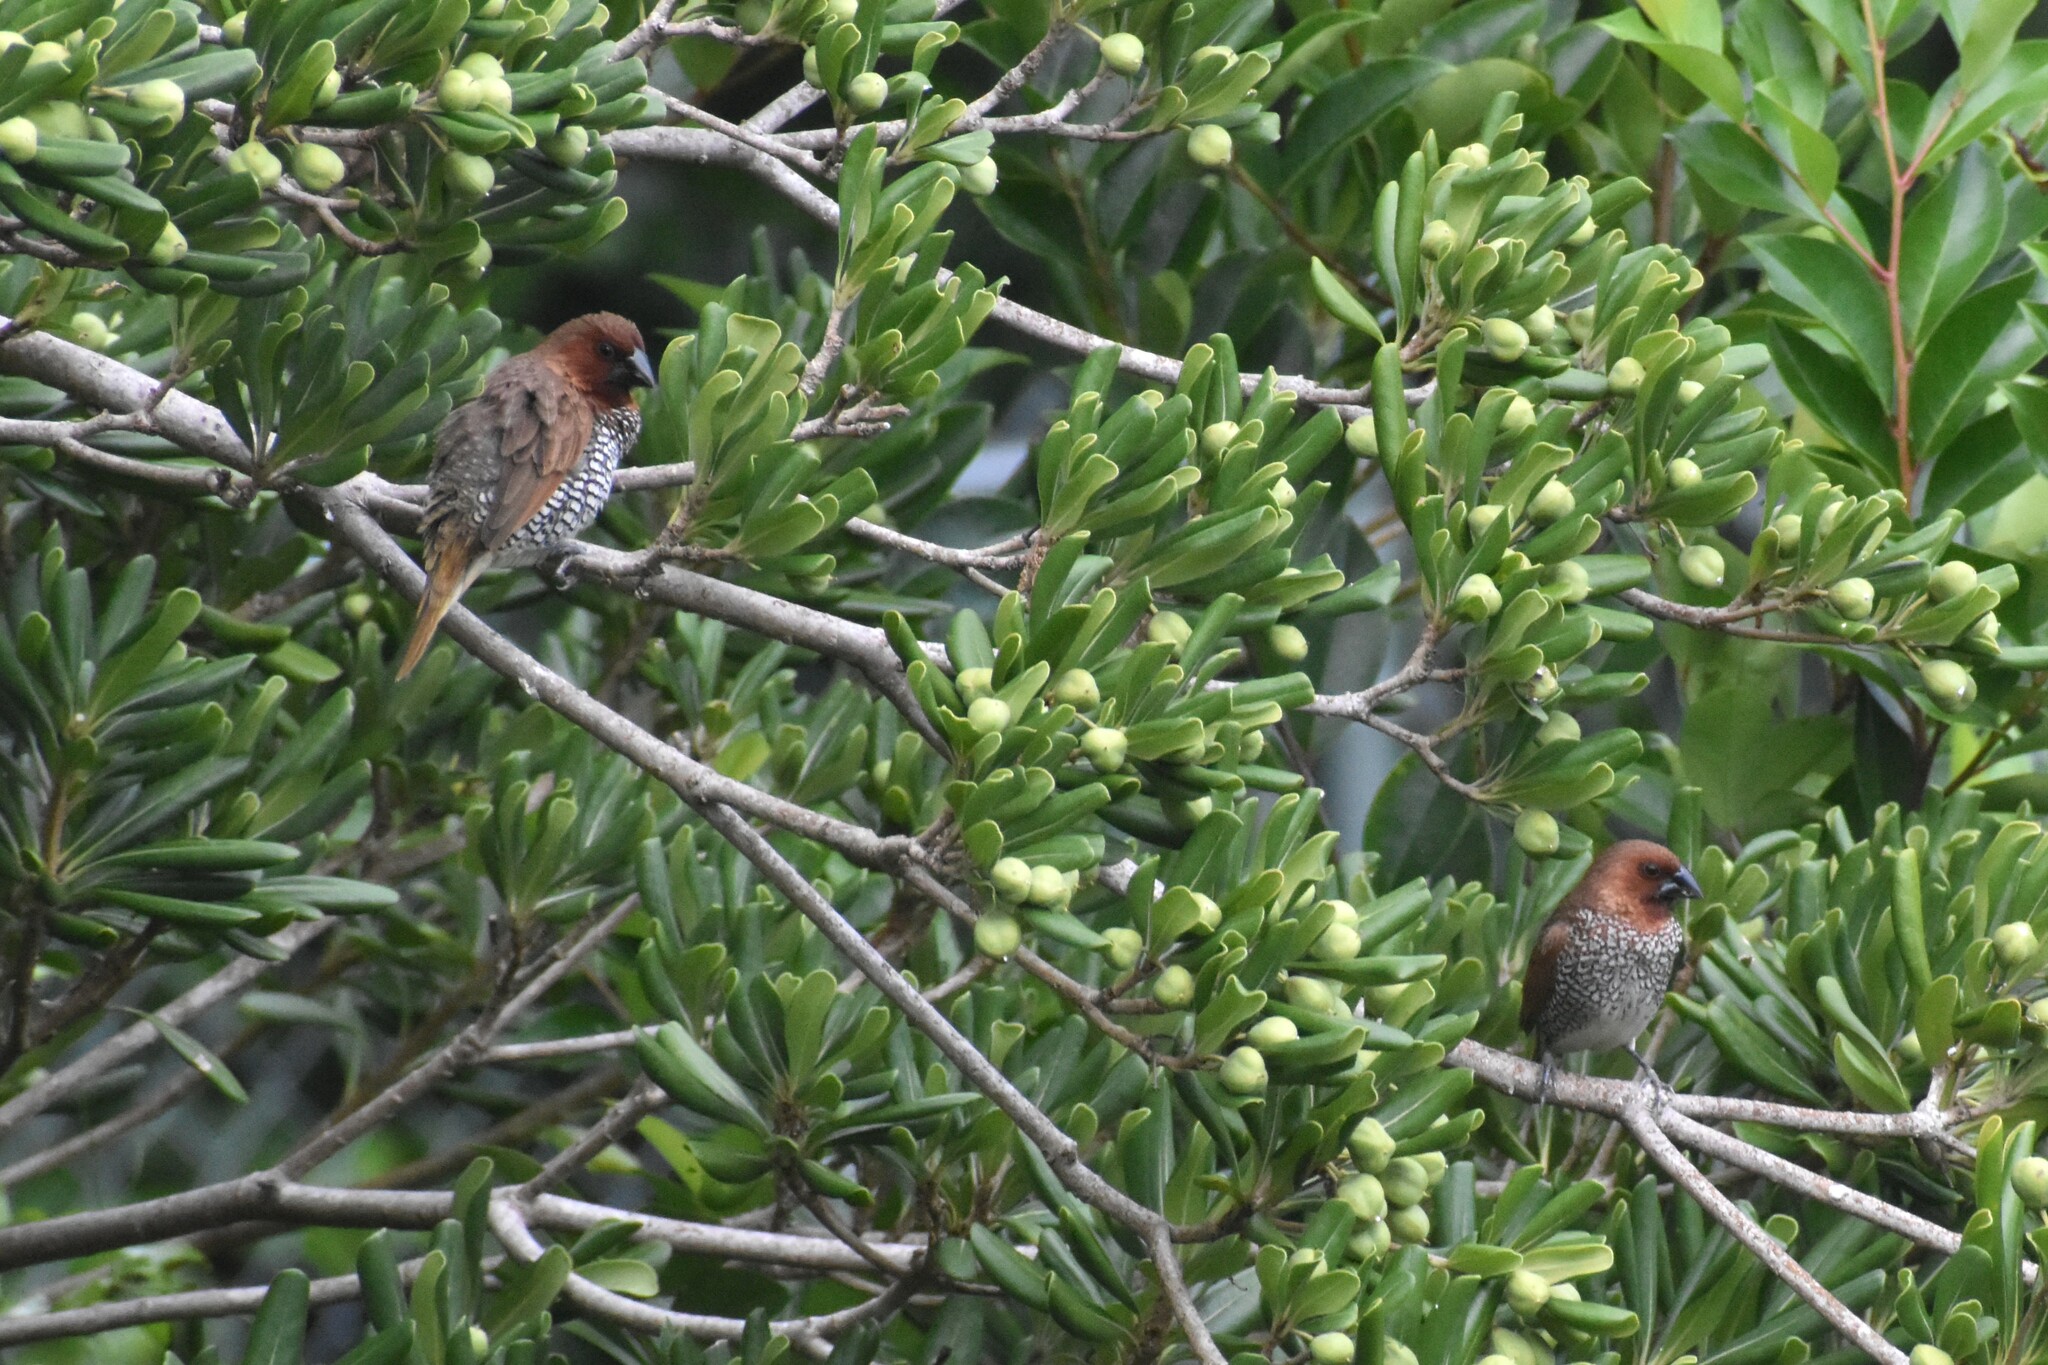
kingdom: Animalia
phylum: Chordata
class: Aves
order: Passeriformes
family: Estrildidae
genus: Lonchura
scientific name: Lonchura punctulata
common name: Scaly-breasted munia
